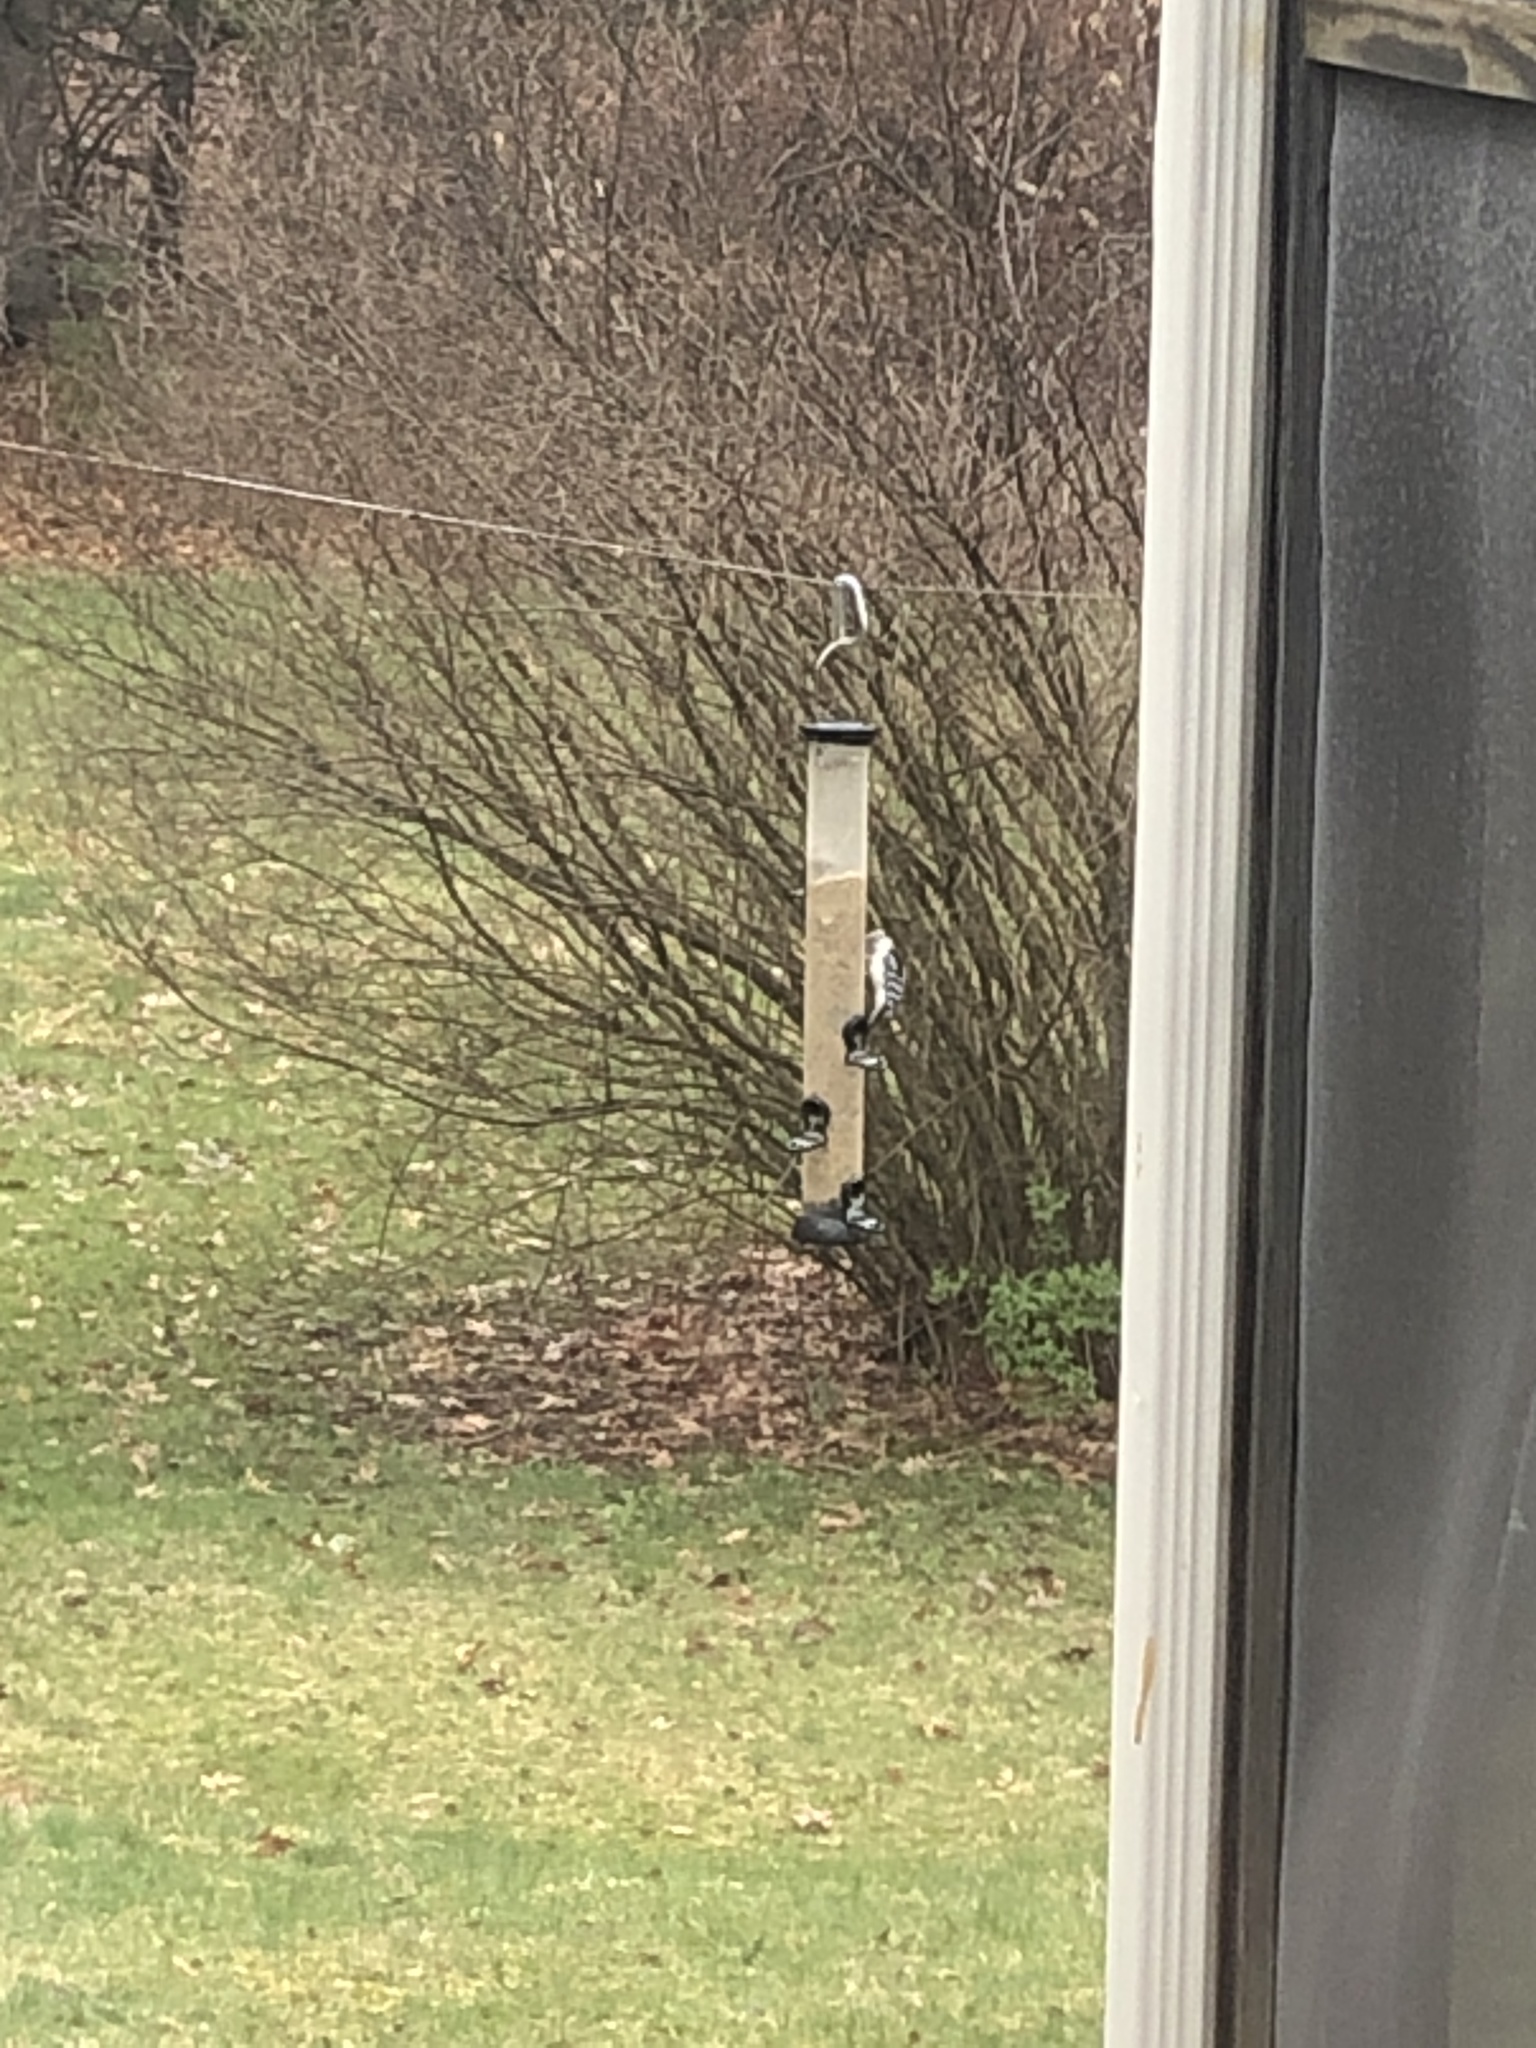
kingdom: Animalia
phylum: Chordata
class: Aves
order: Piciformes
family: Picidae
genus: Dryobates
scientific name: Dryobates pubescens
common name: Downy woodpecker
